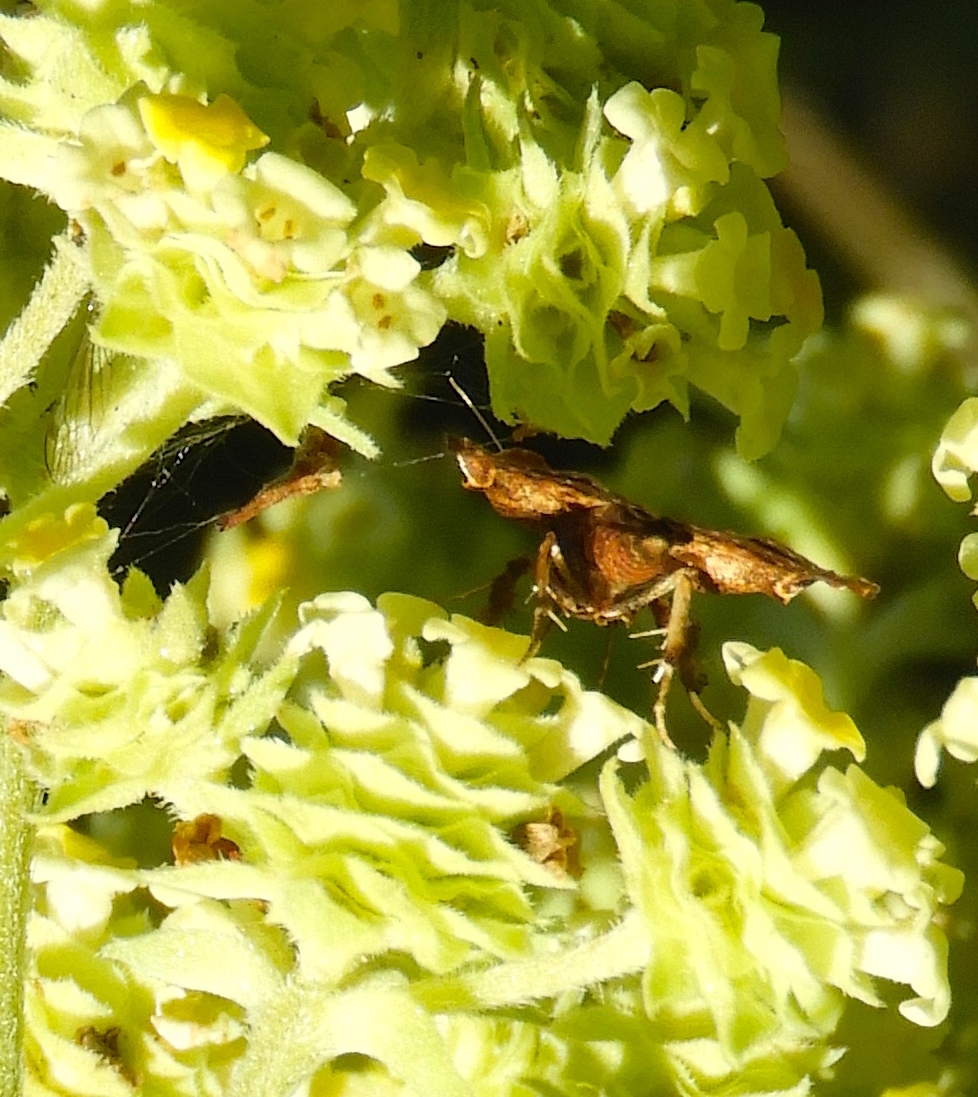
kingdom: Animalia
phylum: Arthropoda
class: Insecta
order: Lepidoptera
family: Pyralidae
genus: Clydonopteron
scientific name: Clydonopteron
